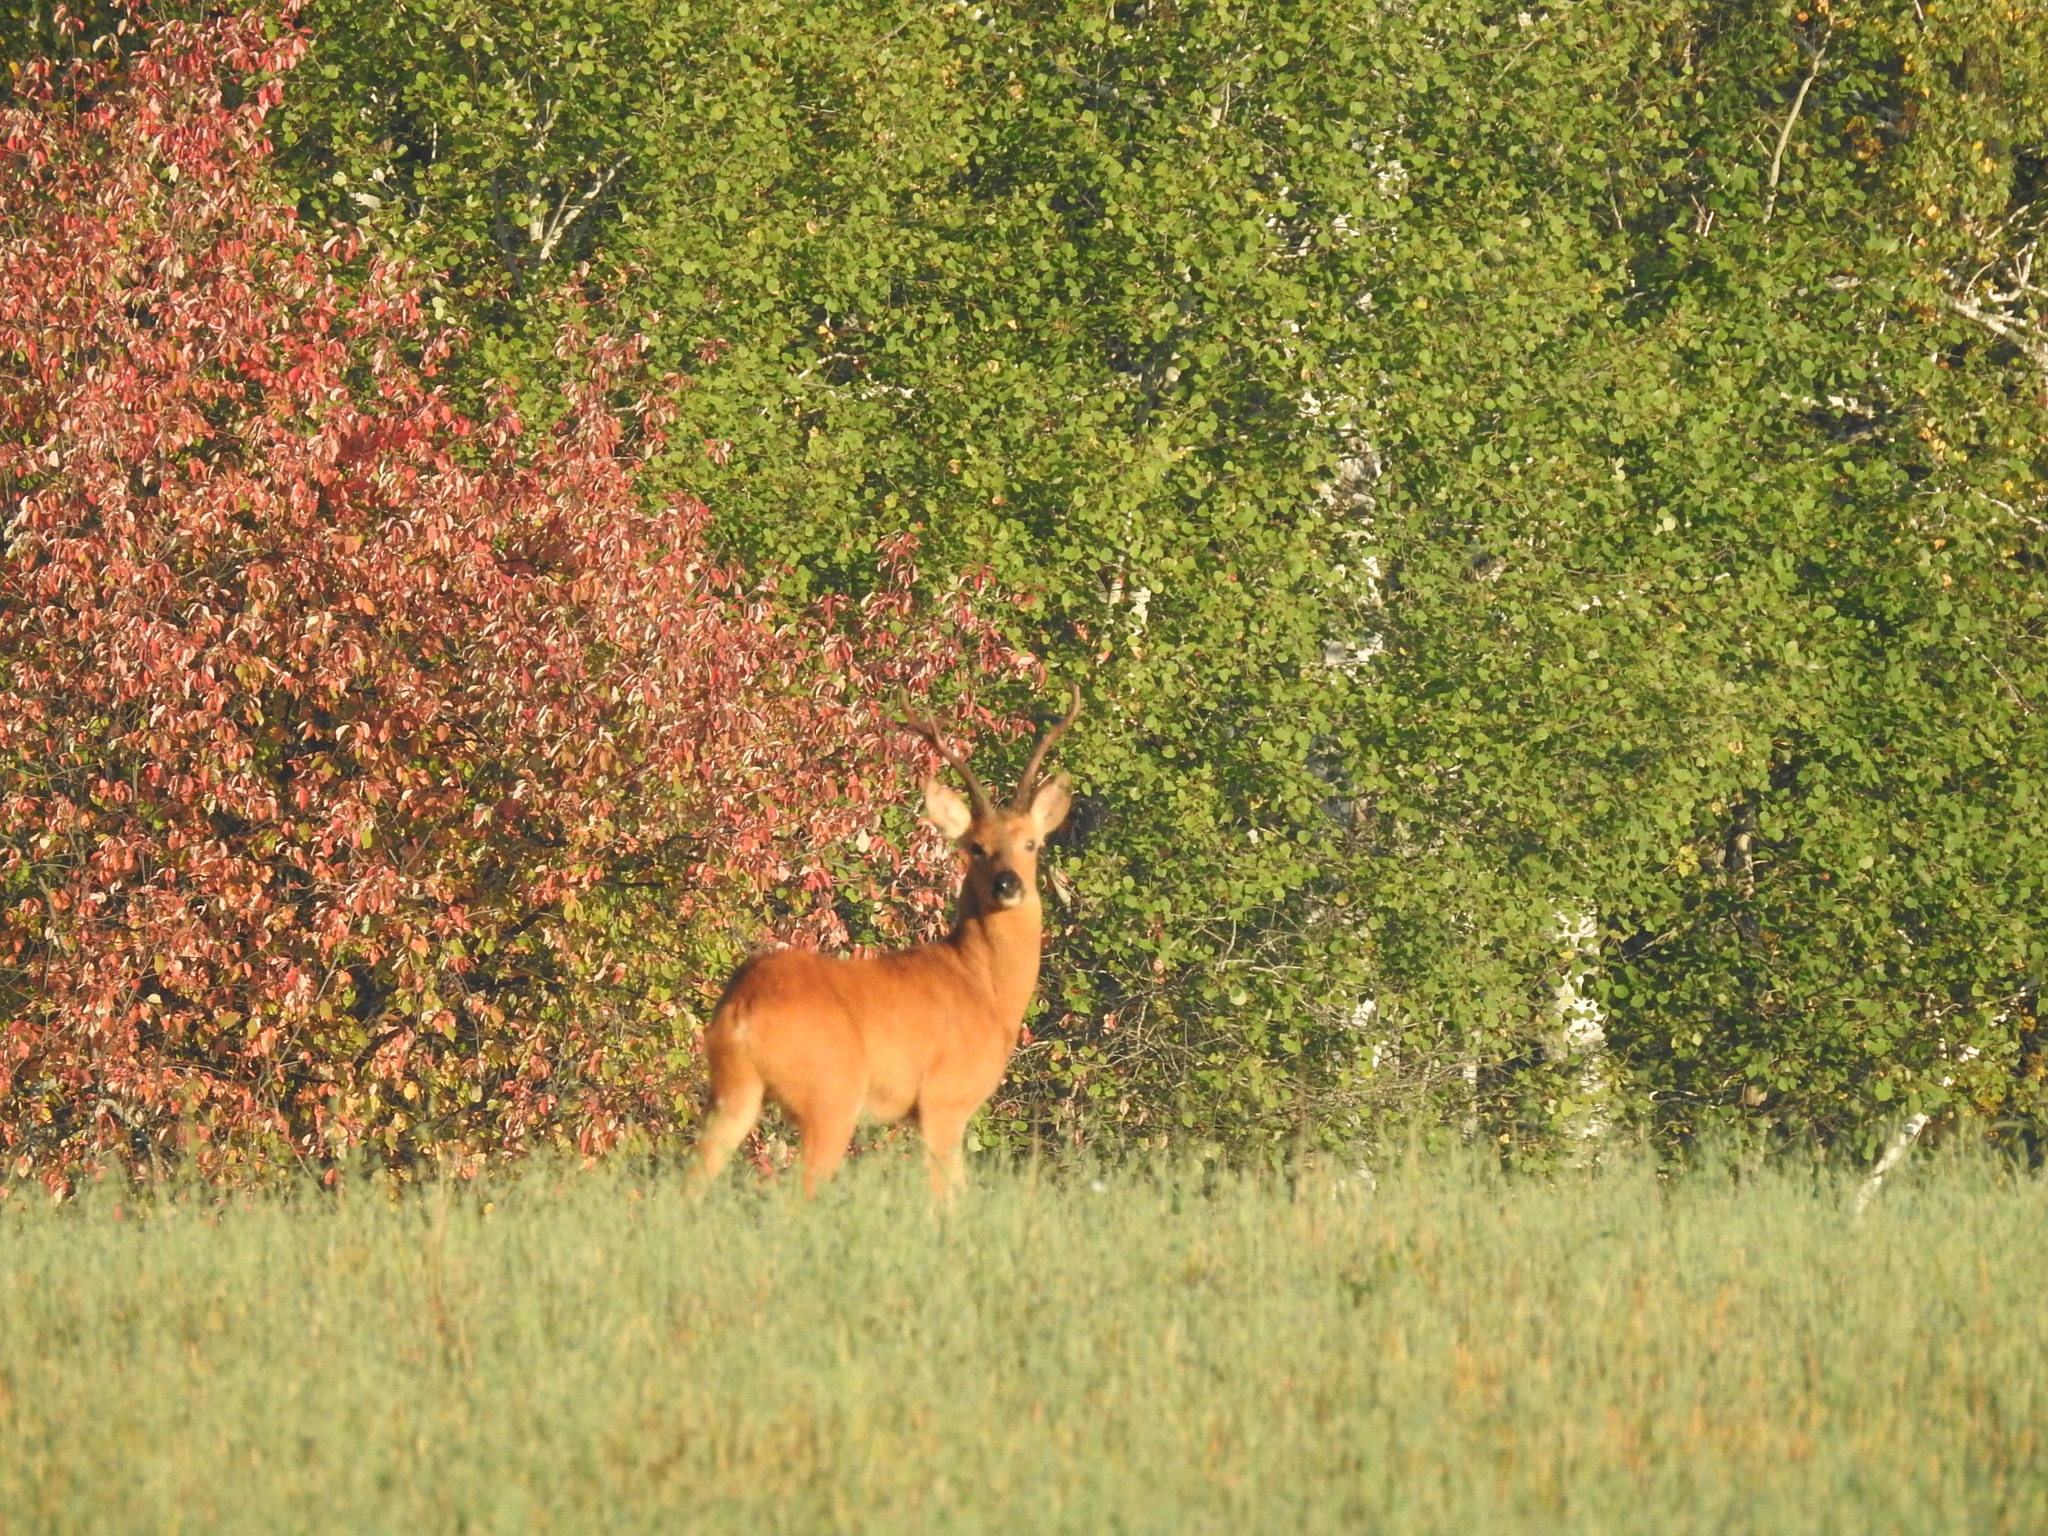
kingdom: Animalia
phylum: Chordata
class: Mammalia
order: Artiodactyla
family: Cervidae
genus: Capreolus
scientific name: Capreolus pygargus
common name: Siberian roe
